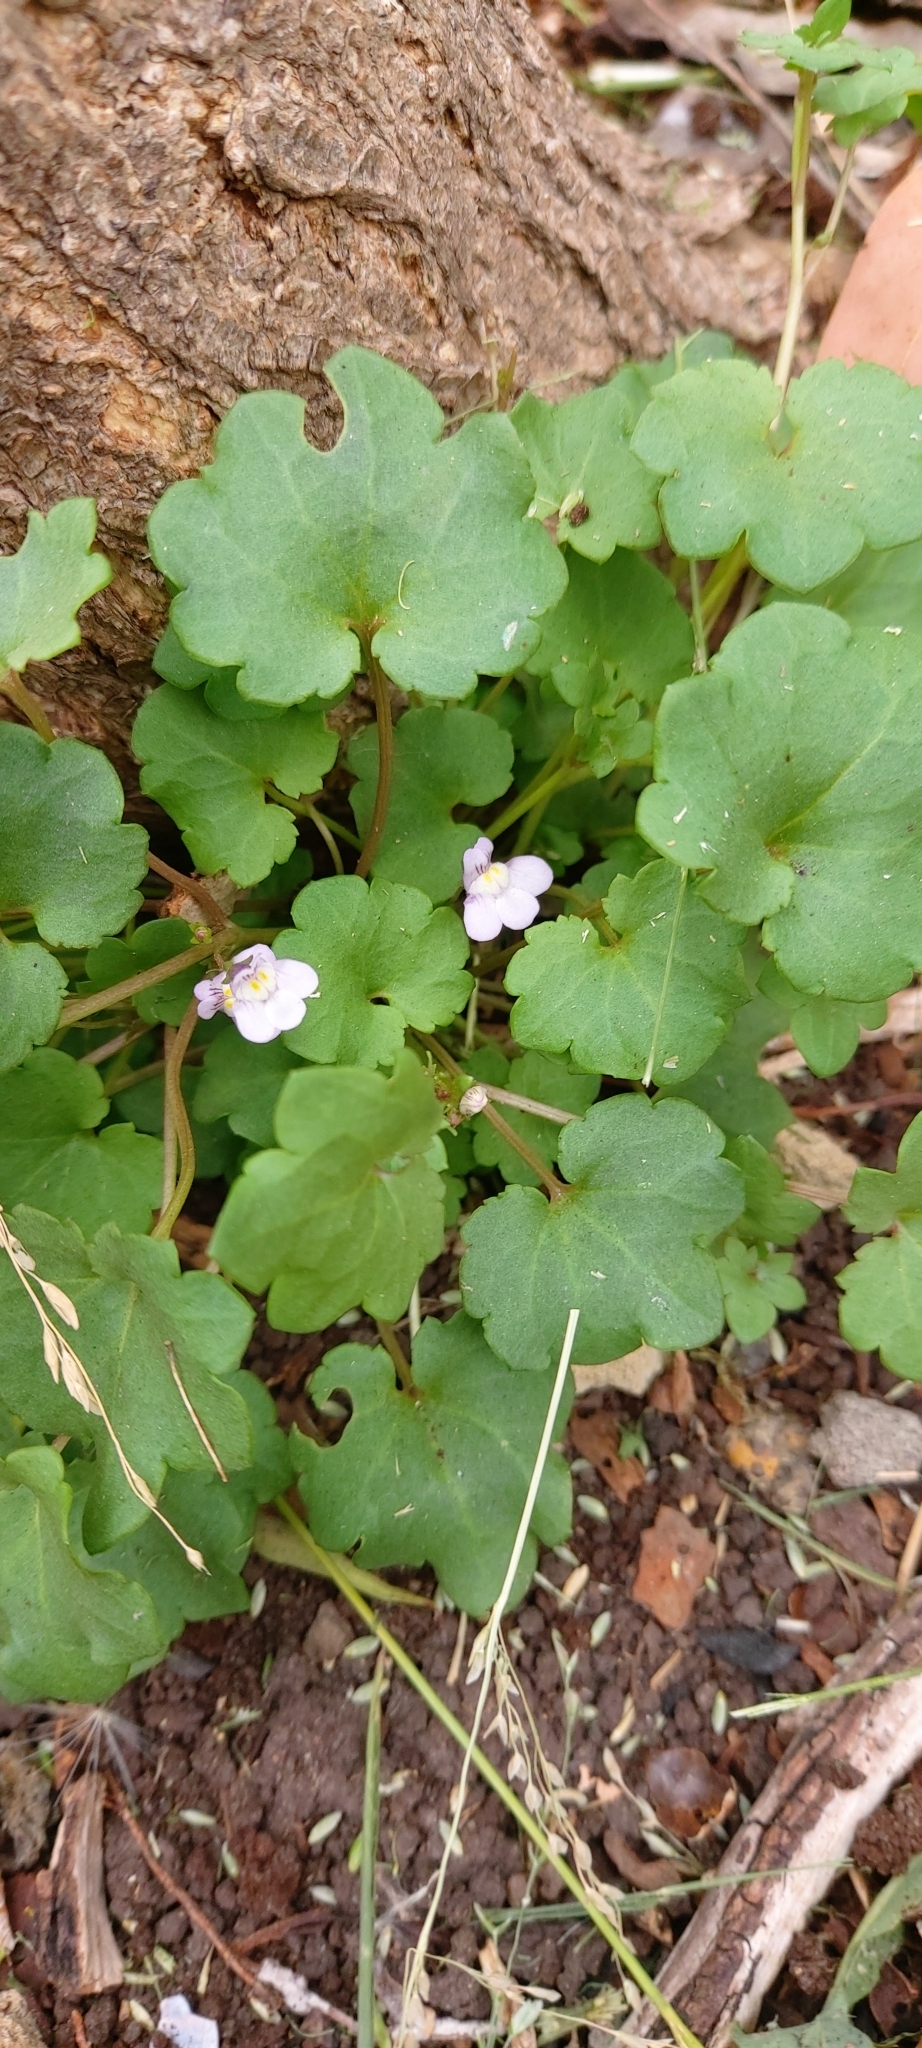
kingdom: Plantae
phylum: Tracheophyta
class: Magnoliopsida
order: Lamiales
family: Plantaginaceae
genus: Cymbalaria
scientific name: Cymbalaria muralis
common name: Ivy-leaved toadflax
